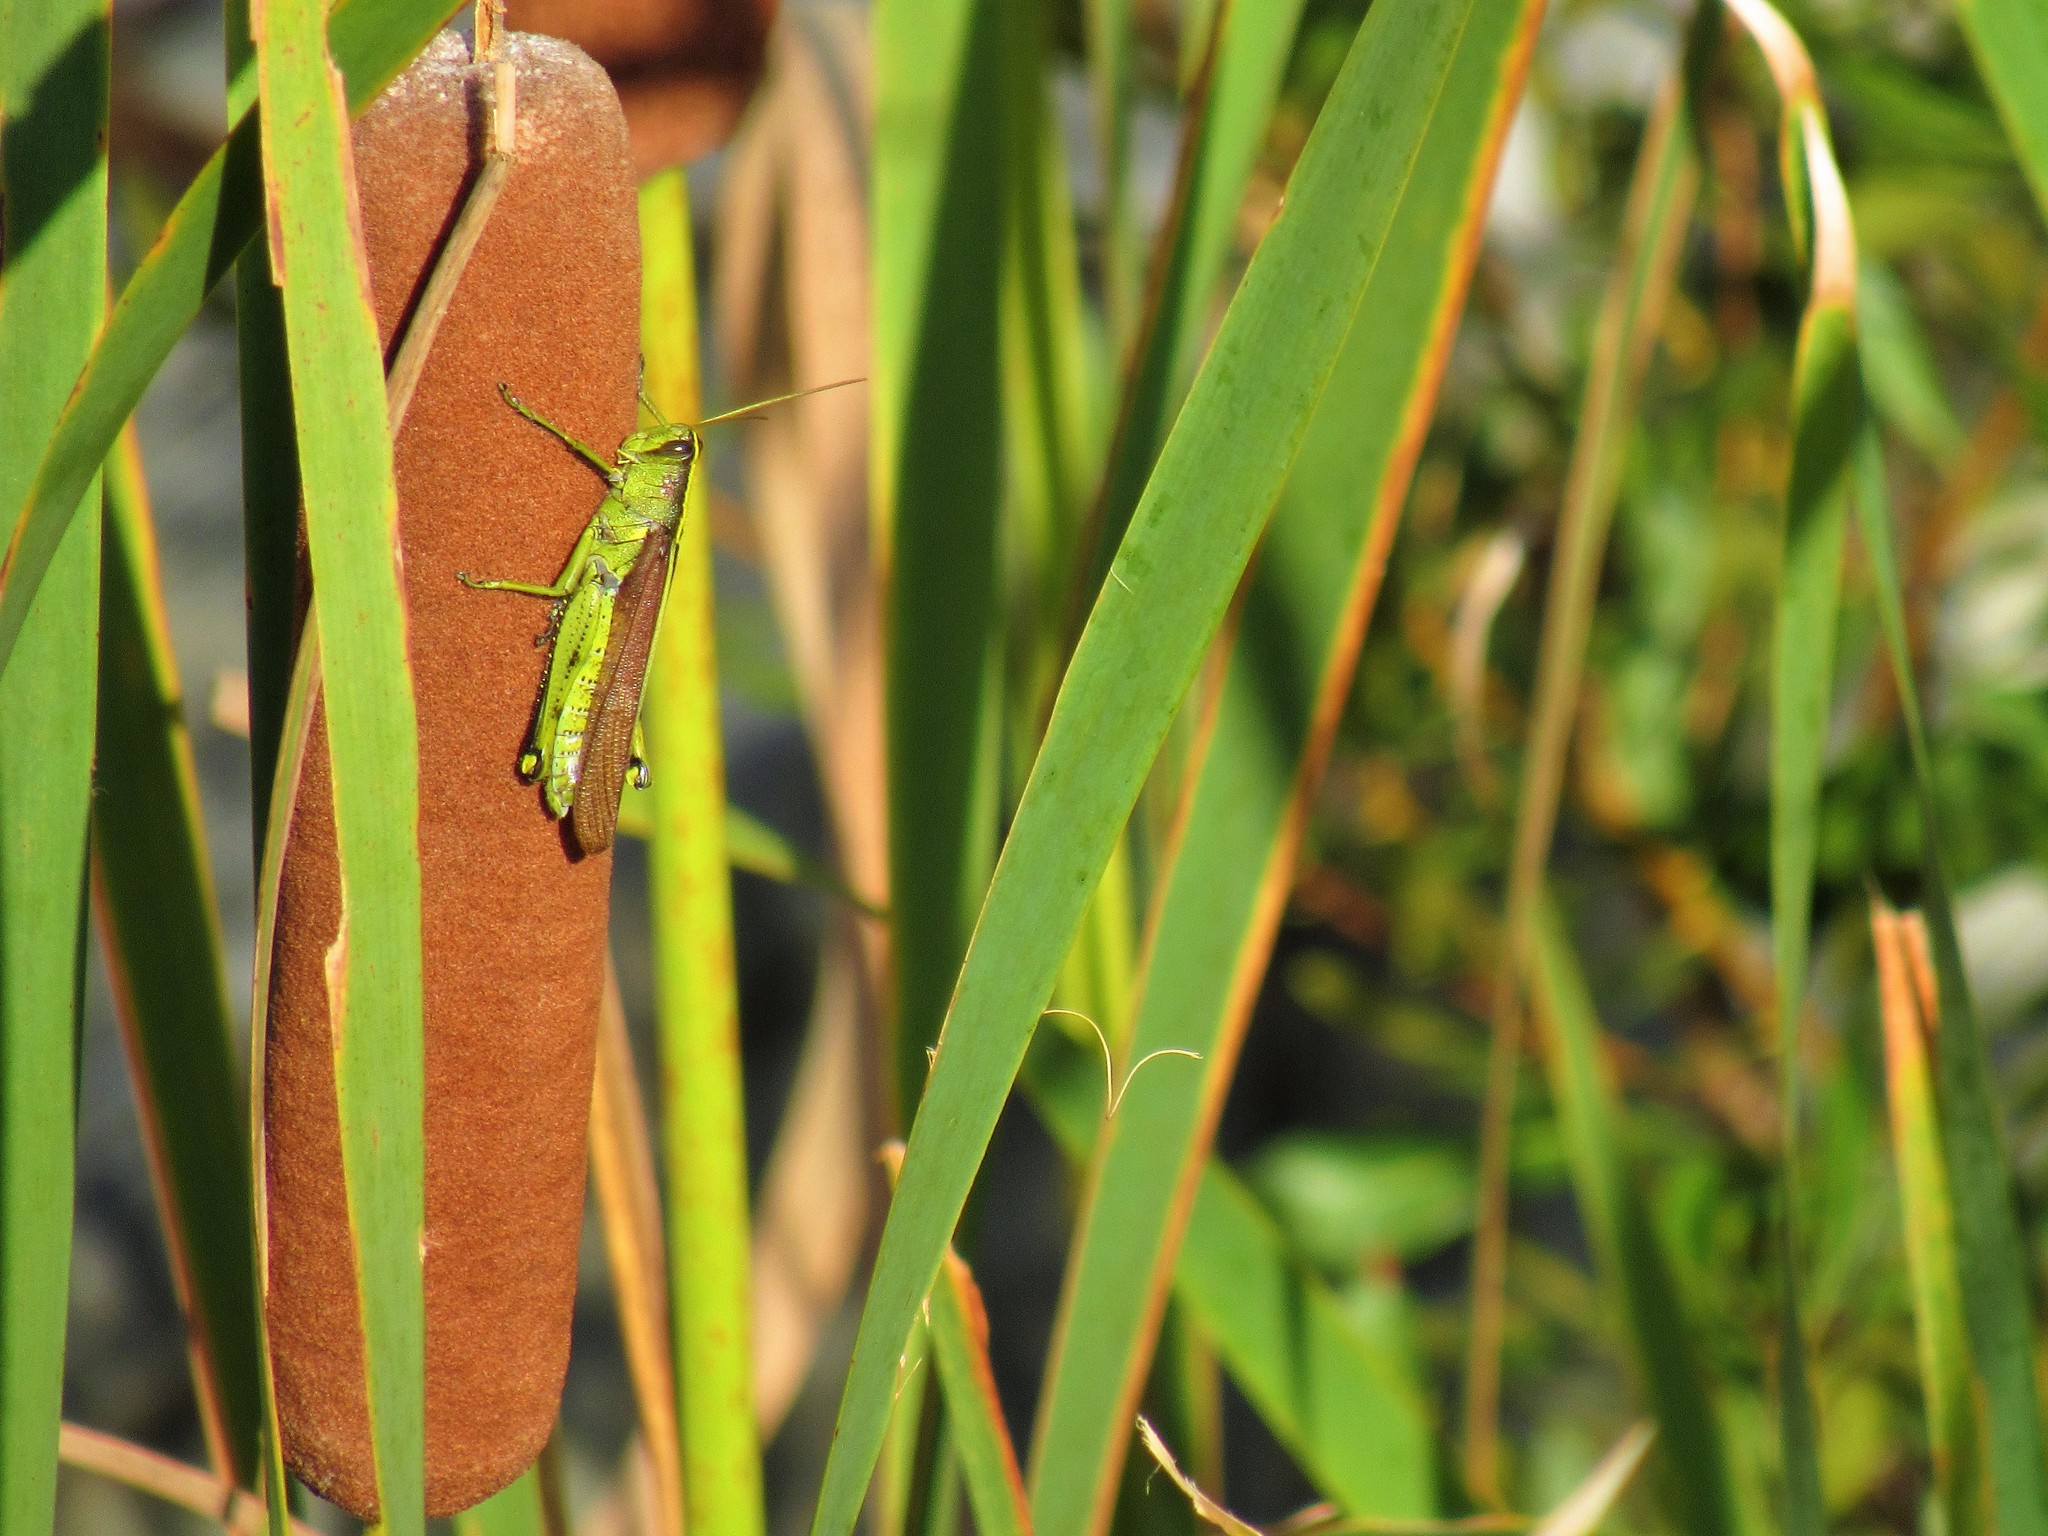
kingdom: Animalia
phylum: Arthropoda
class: Insecta
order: Orthoptera
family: Acrididae
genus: Schistocerca
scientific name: Schistocerca obscura
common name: Obscure bird grasshopper
